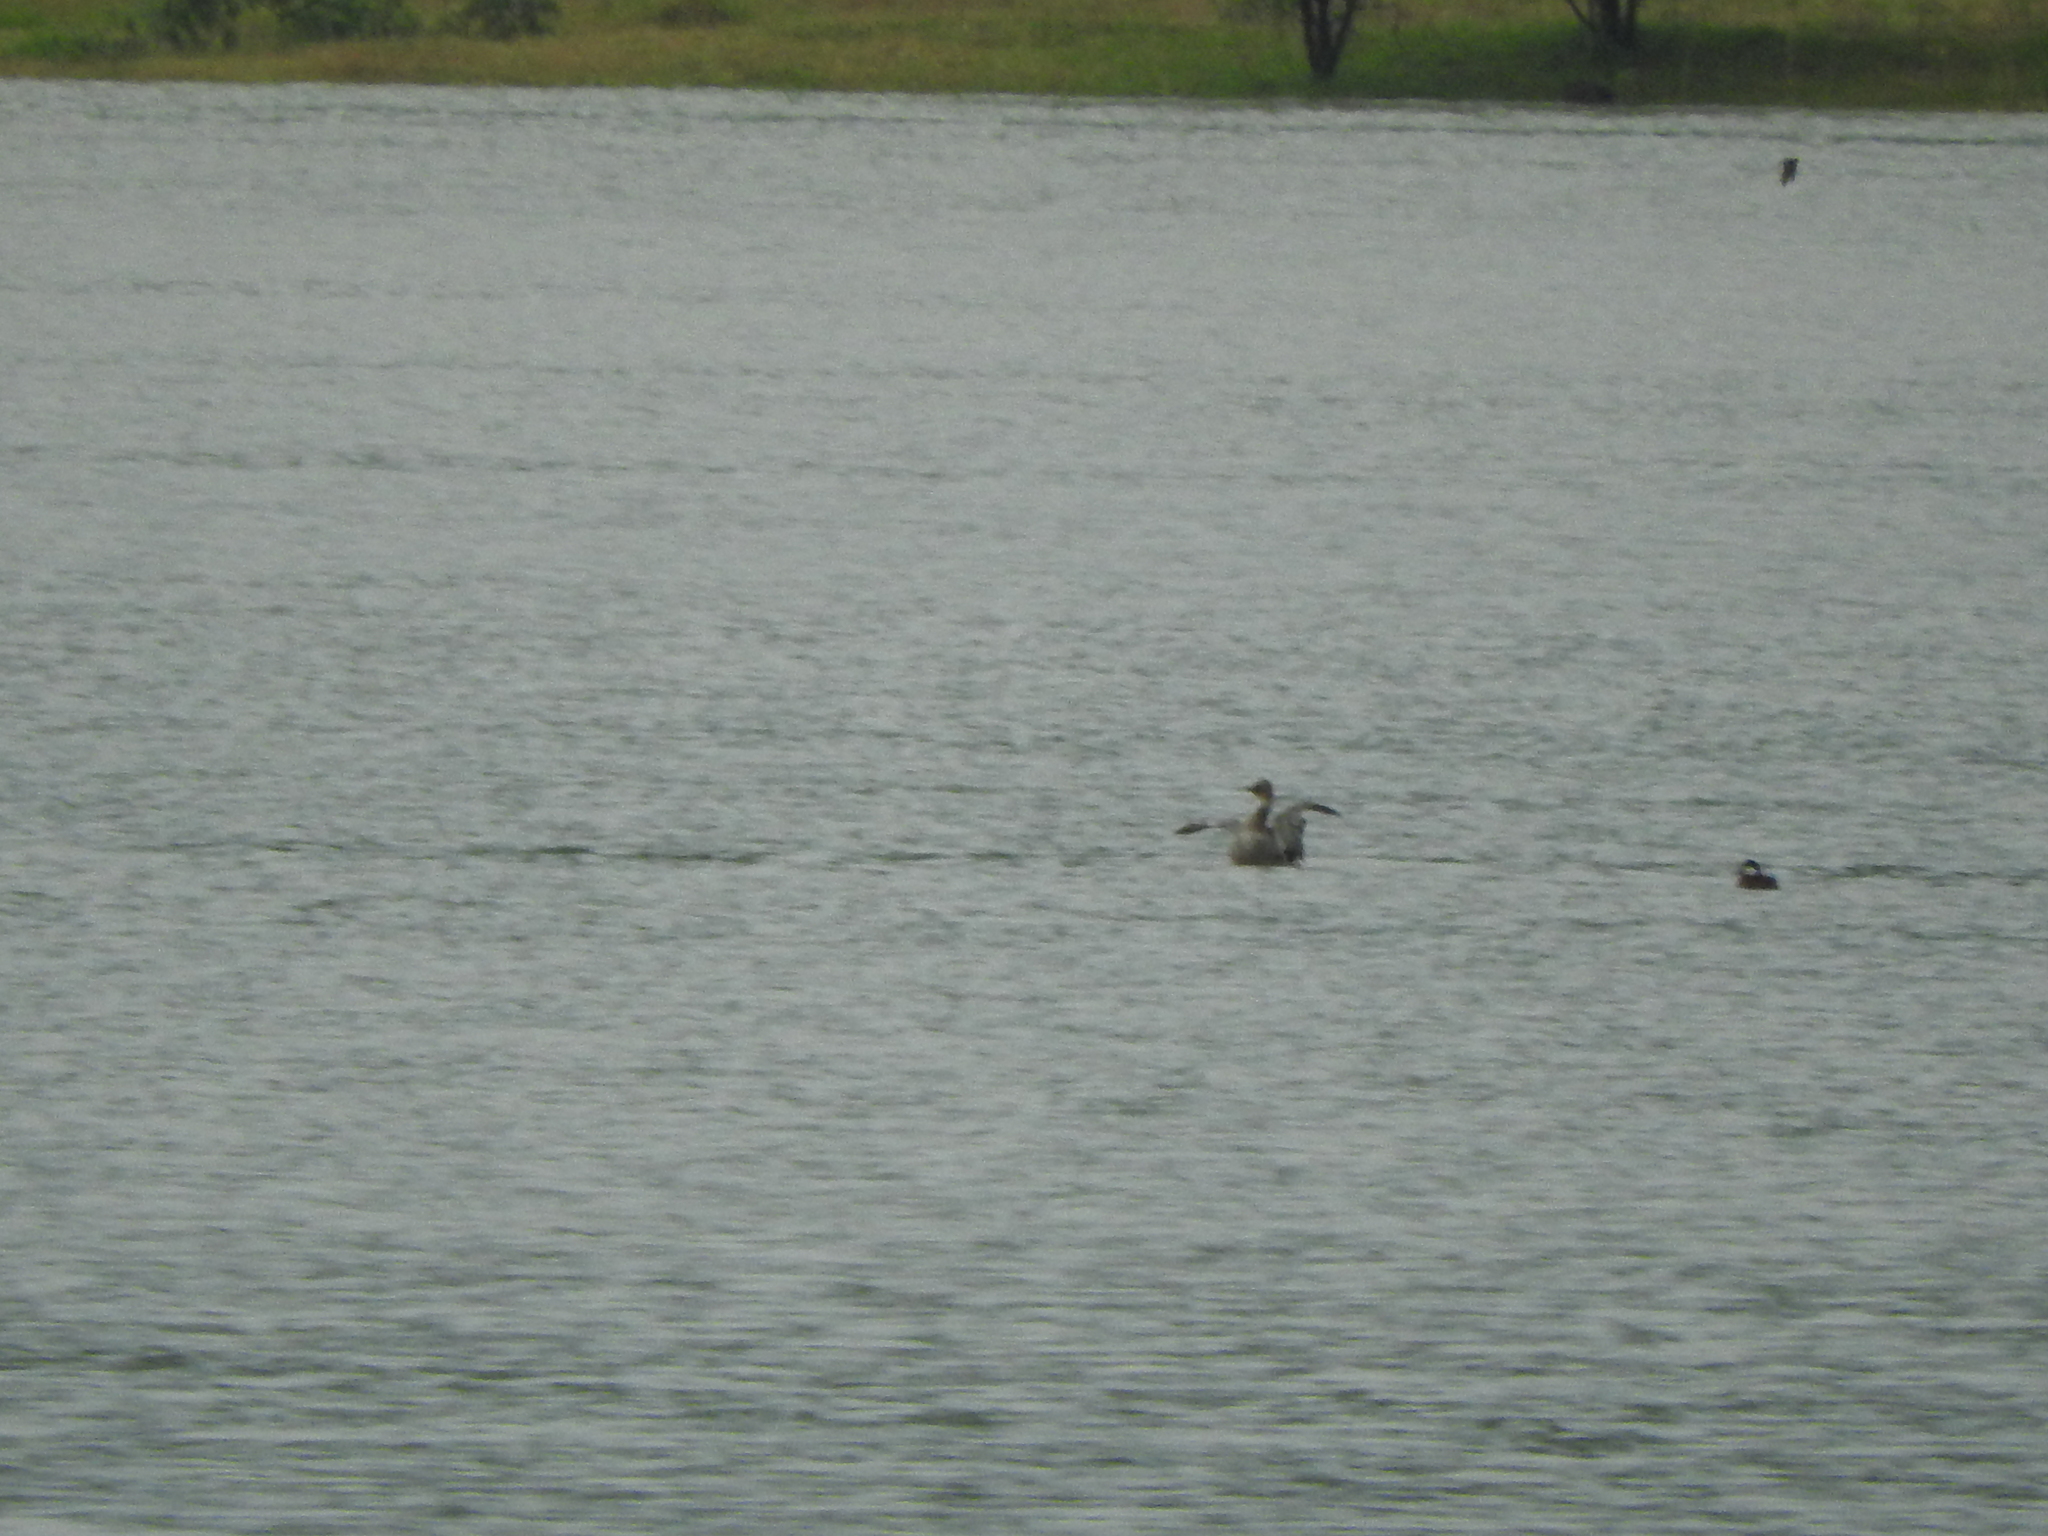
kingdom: Animalia
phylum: Chordata
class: Aves
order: Anseriformes
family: Anatidae
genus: Oxyura
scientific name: Oxyura jamaicensis
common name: Ruddy duck
